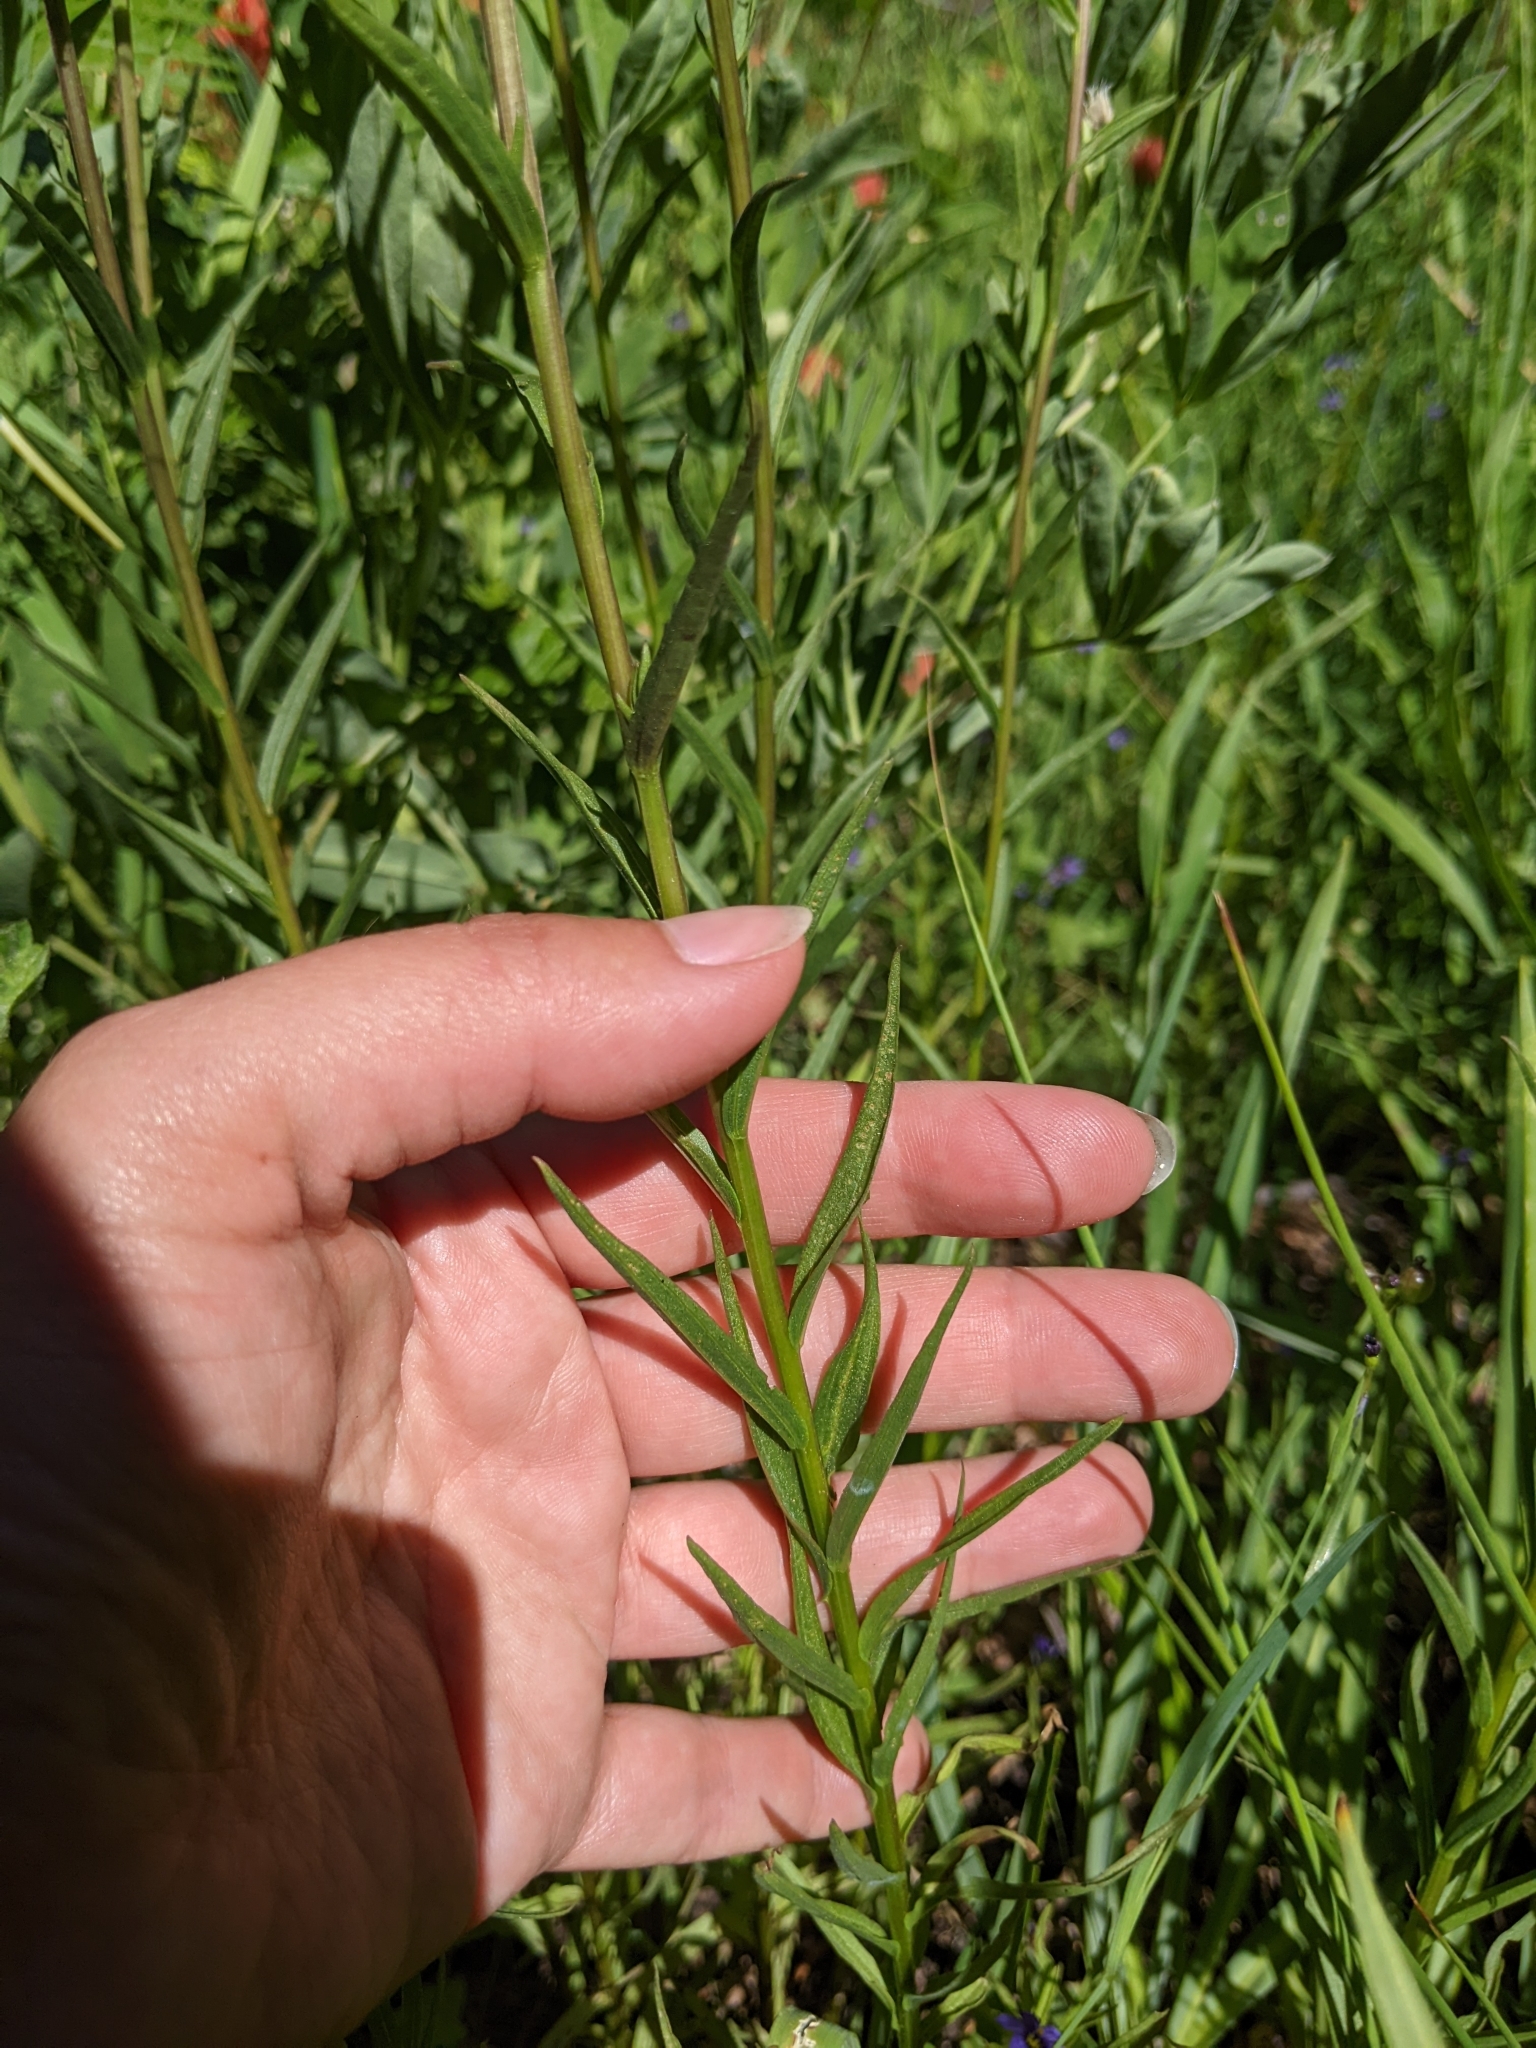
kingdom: Plantae
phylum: Tracheophyta
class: Magnoliopsida
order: Lamiales
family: Orobanchaceae
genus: Castilleja
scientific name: Castilleja miniata
